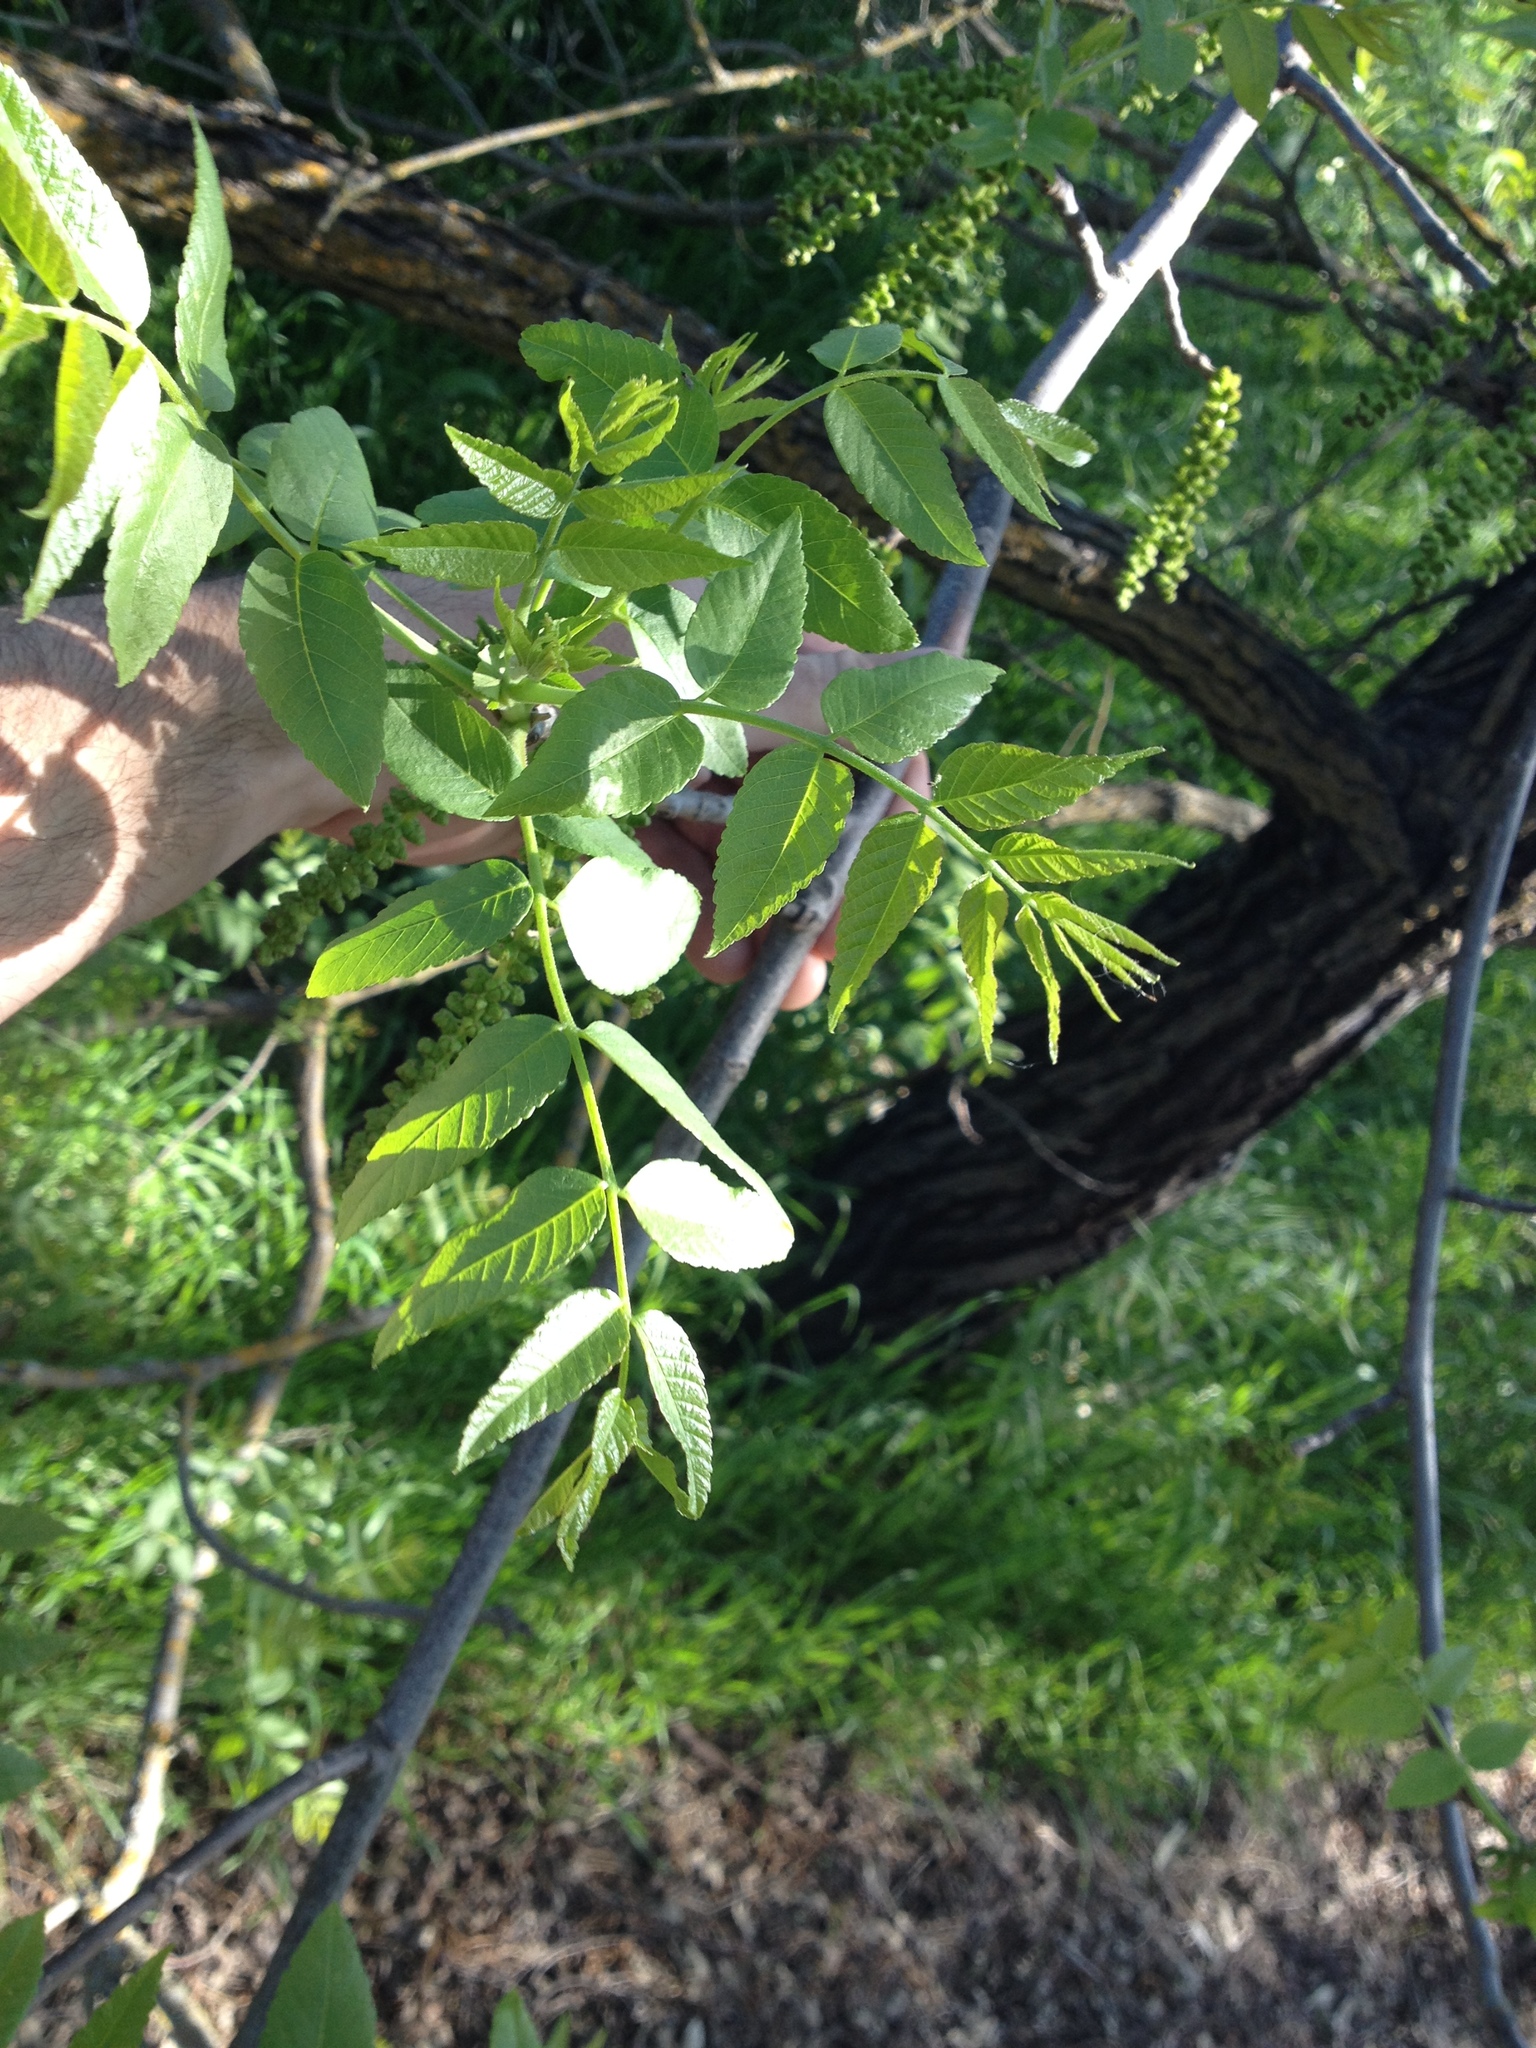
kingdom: Plantae
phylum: Tracheophyta
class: Magnoliopsida
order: Fagales
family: Juglandaceae
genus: Juglans
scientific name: Juglans hindsii
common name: Northern california black walnut
